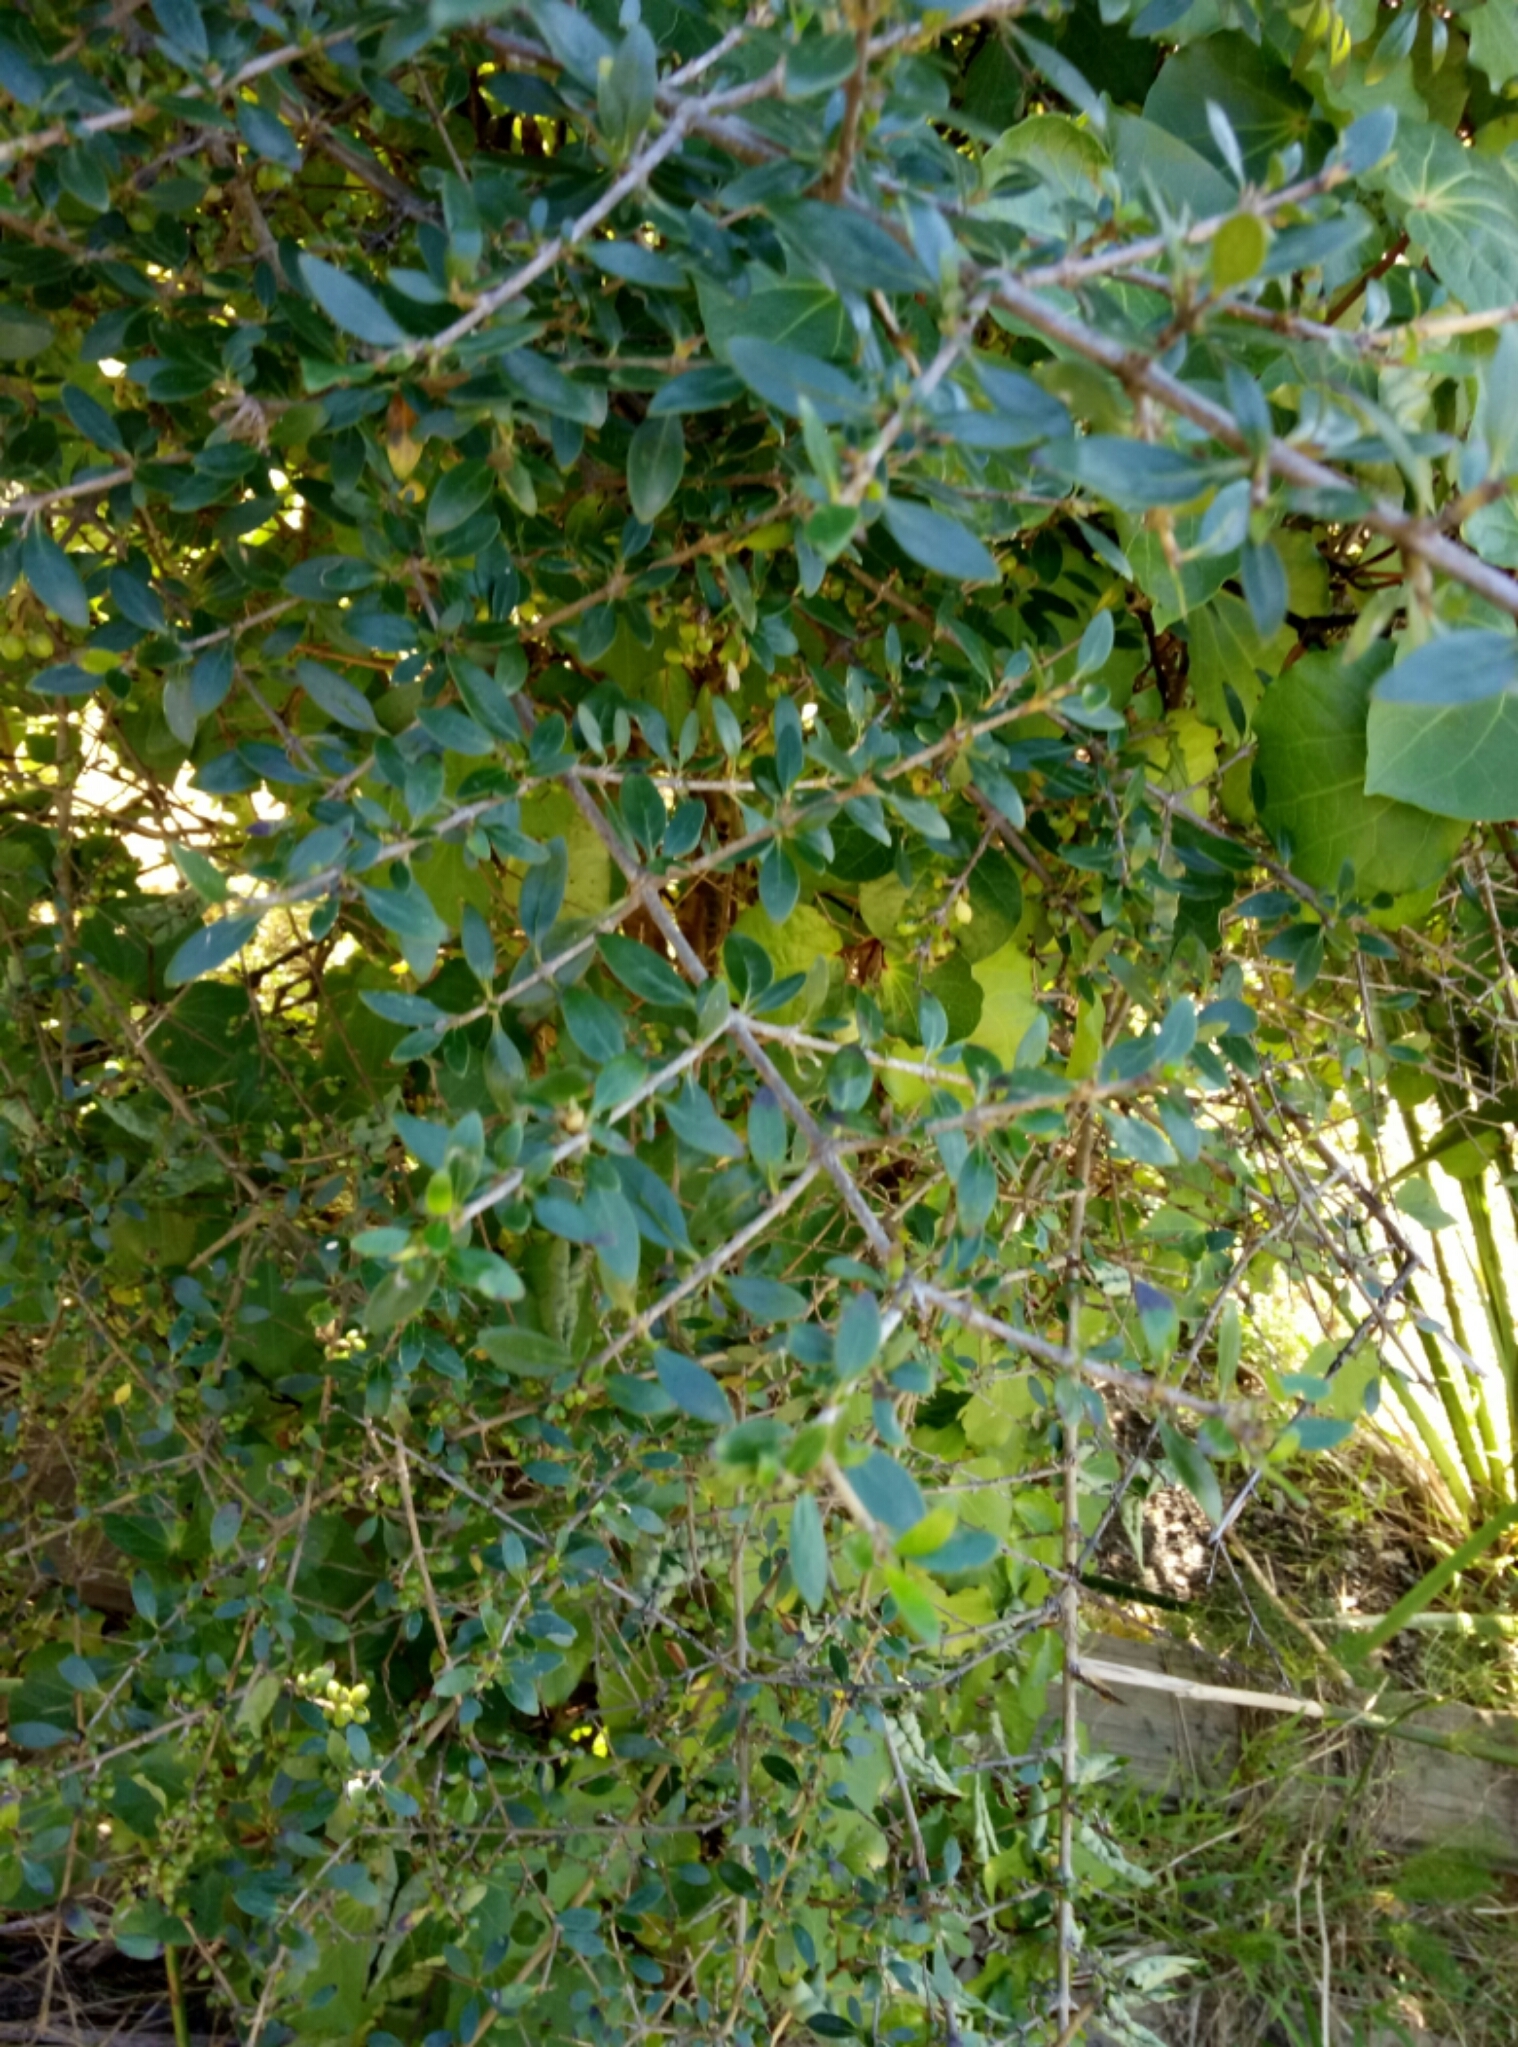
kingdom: Plantae
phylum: Tracheophyta
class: Magnoliopsida
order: Gentianales
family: Rubiaceae
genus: Coprosma
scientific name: Coprosma cunninghamii
